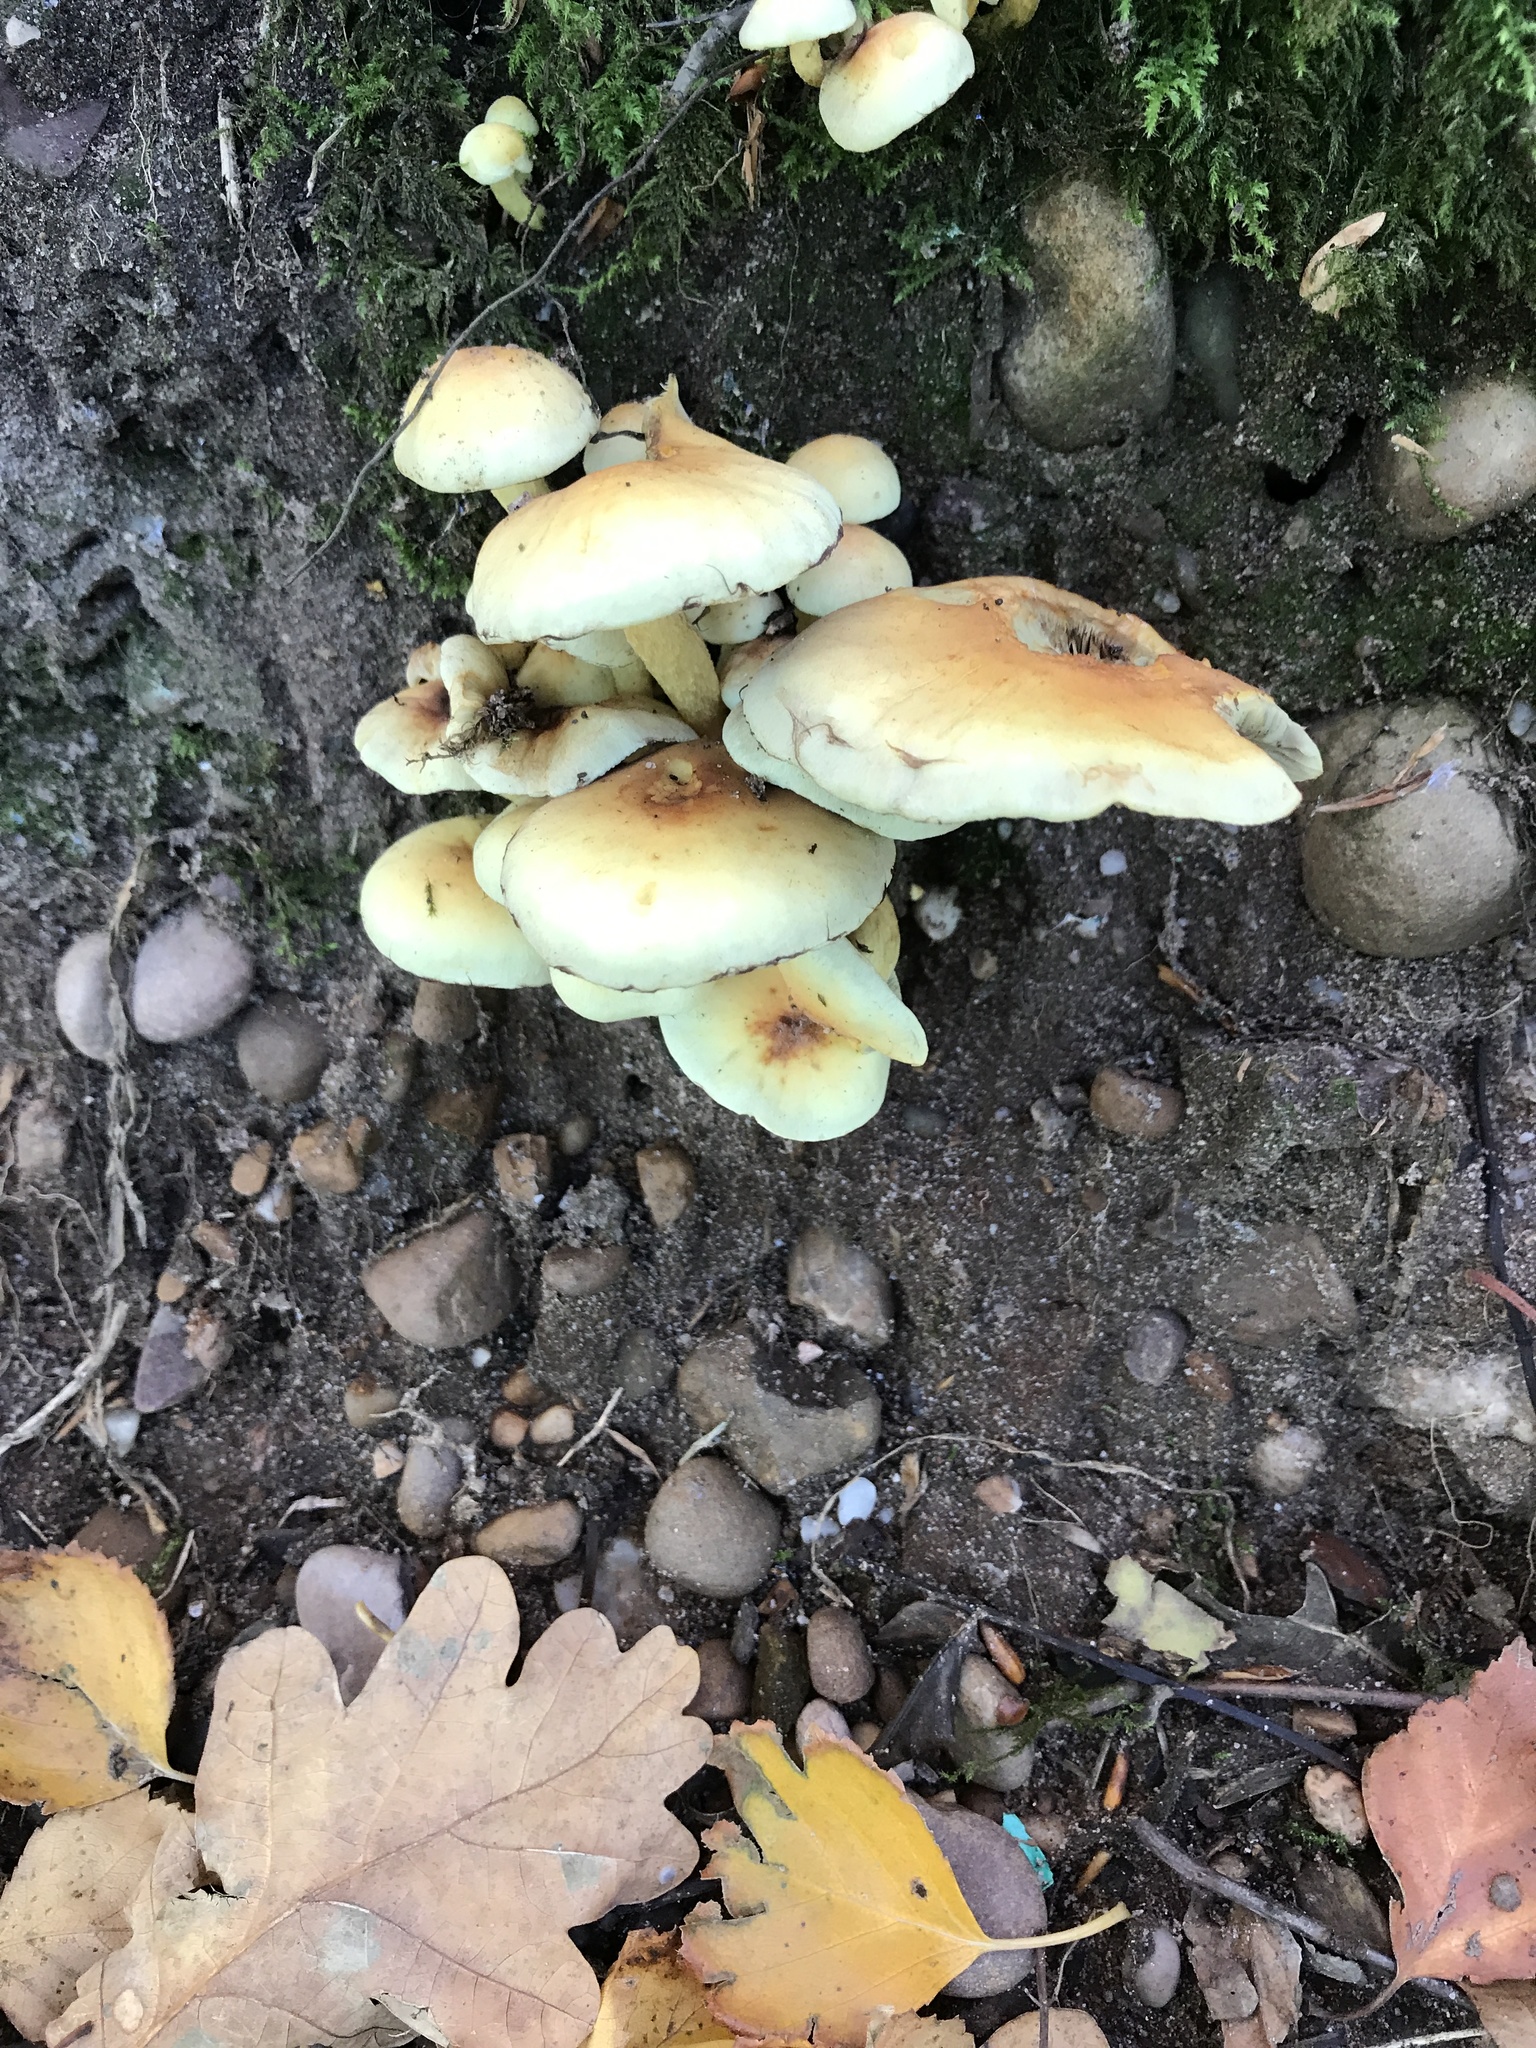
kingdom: Fungi
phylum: Basidiomycota
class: Agaricomycetes
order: Agaricales
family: Strophariaceae
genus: Hypholoma
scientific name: Hypholoma fasciculare
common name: Sulphur tuft
